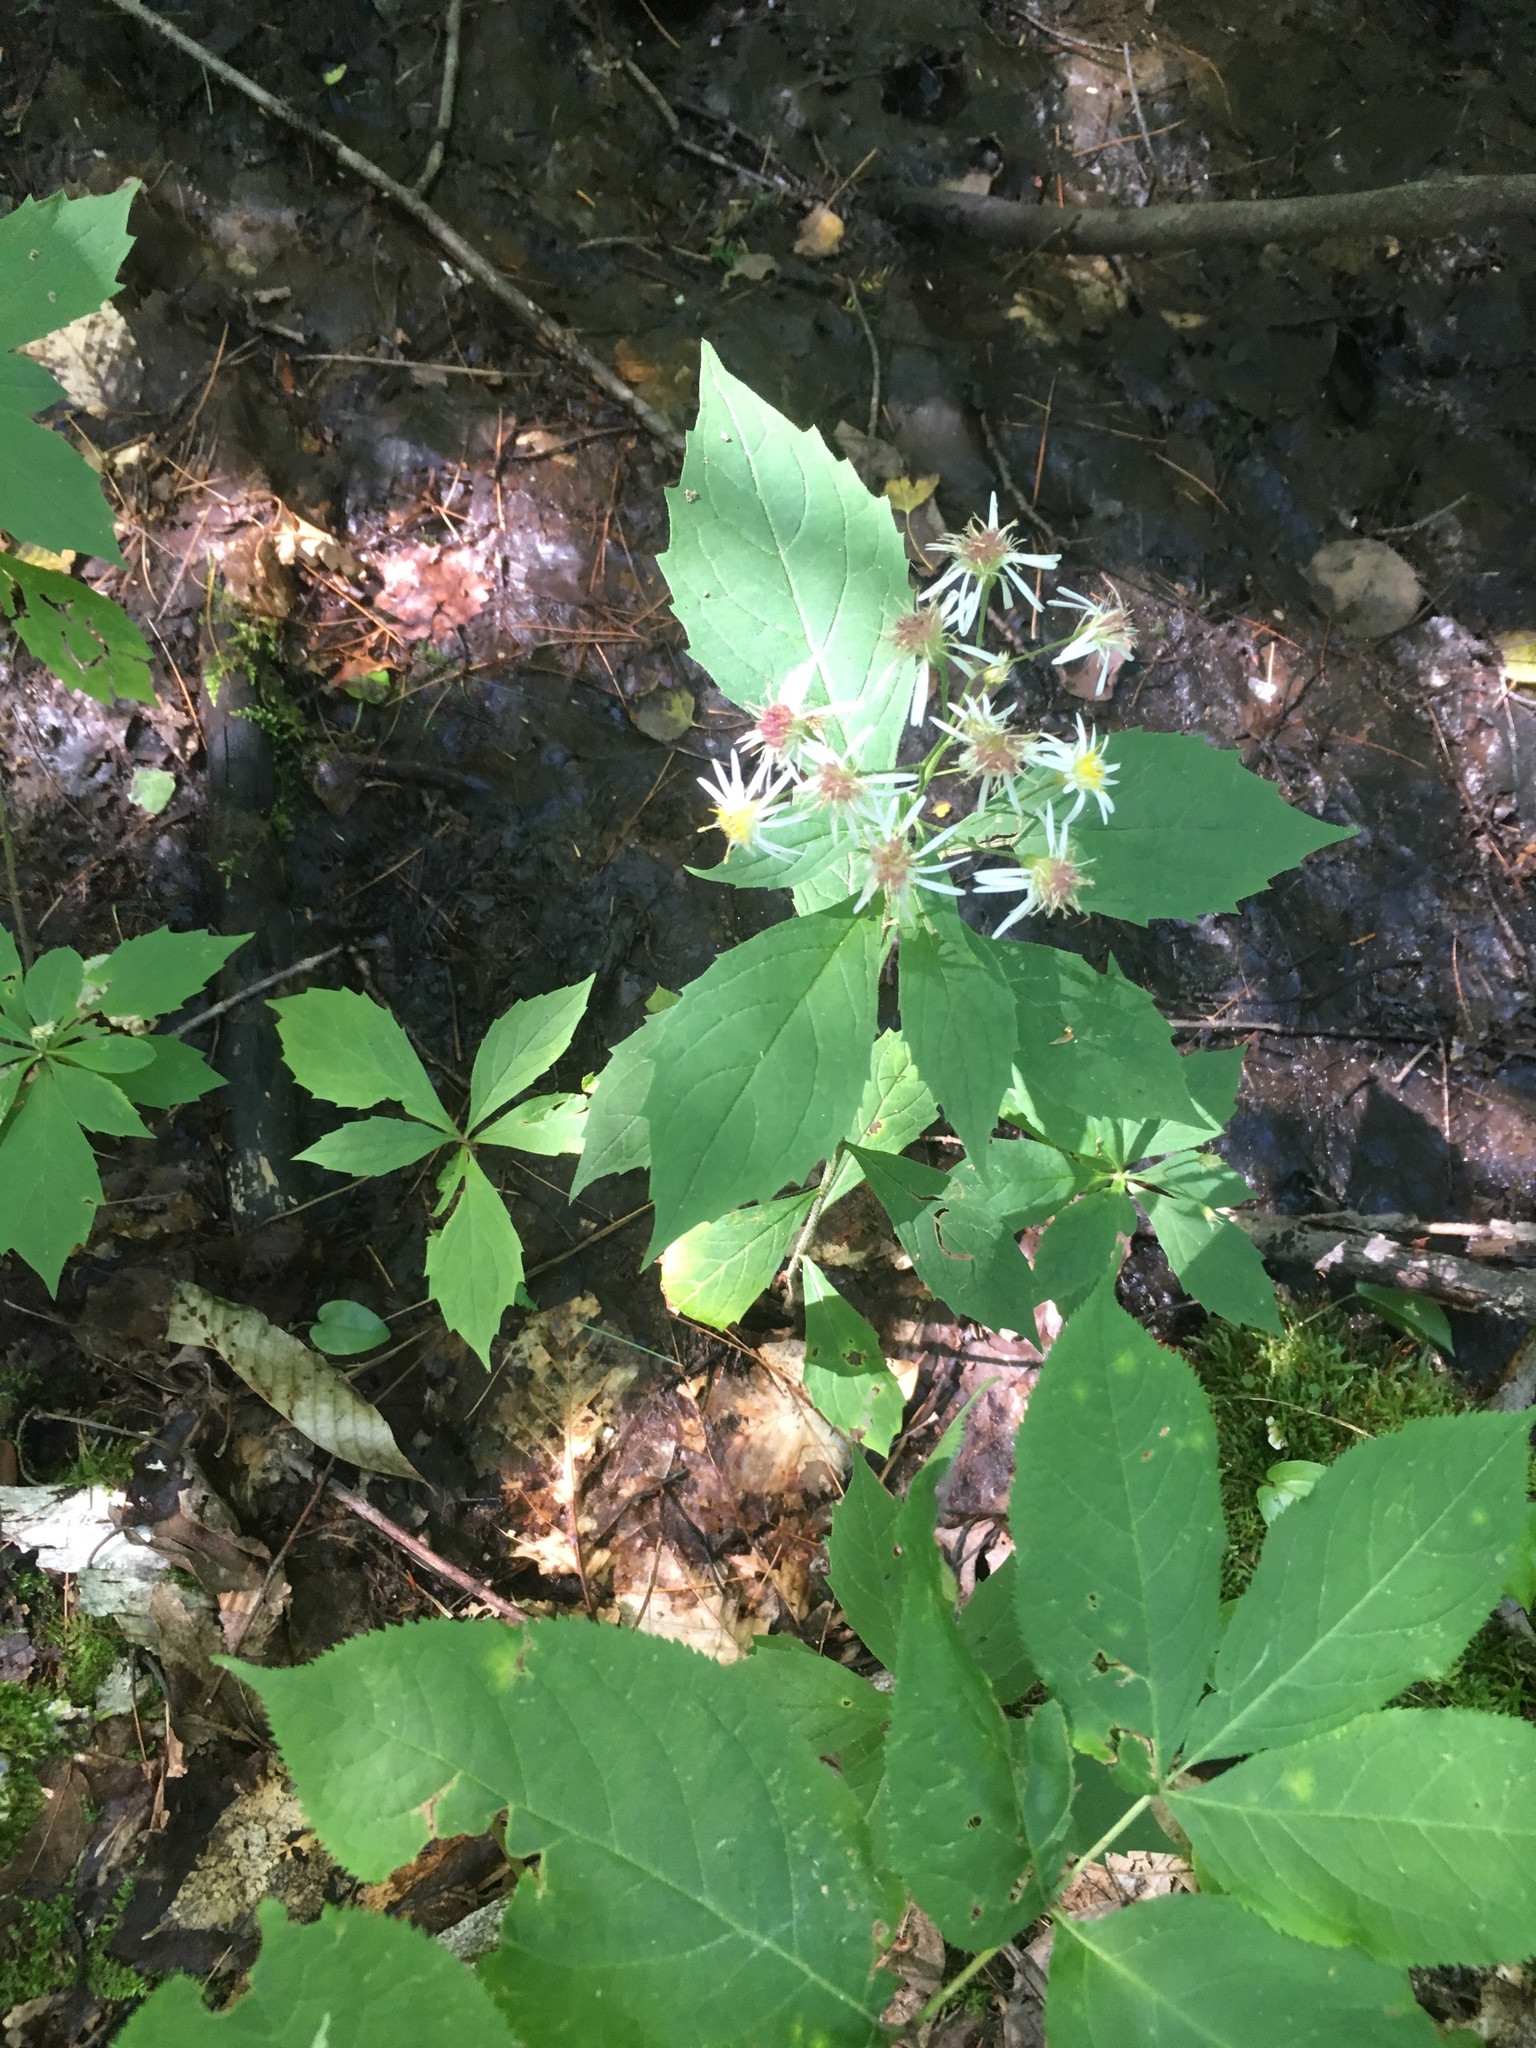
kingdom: Plantae
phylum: Tracheophyta
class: Magnoliopsida
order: Asterales
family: Asteraceae
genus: Oclemena
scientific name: Oclemena acuminata
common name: Mountain aster
